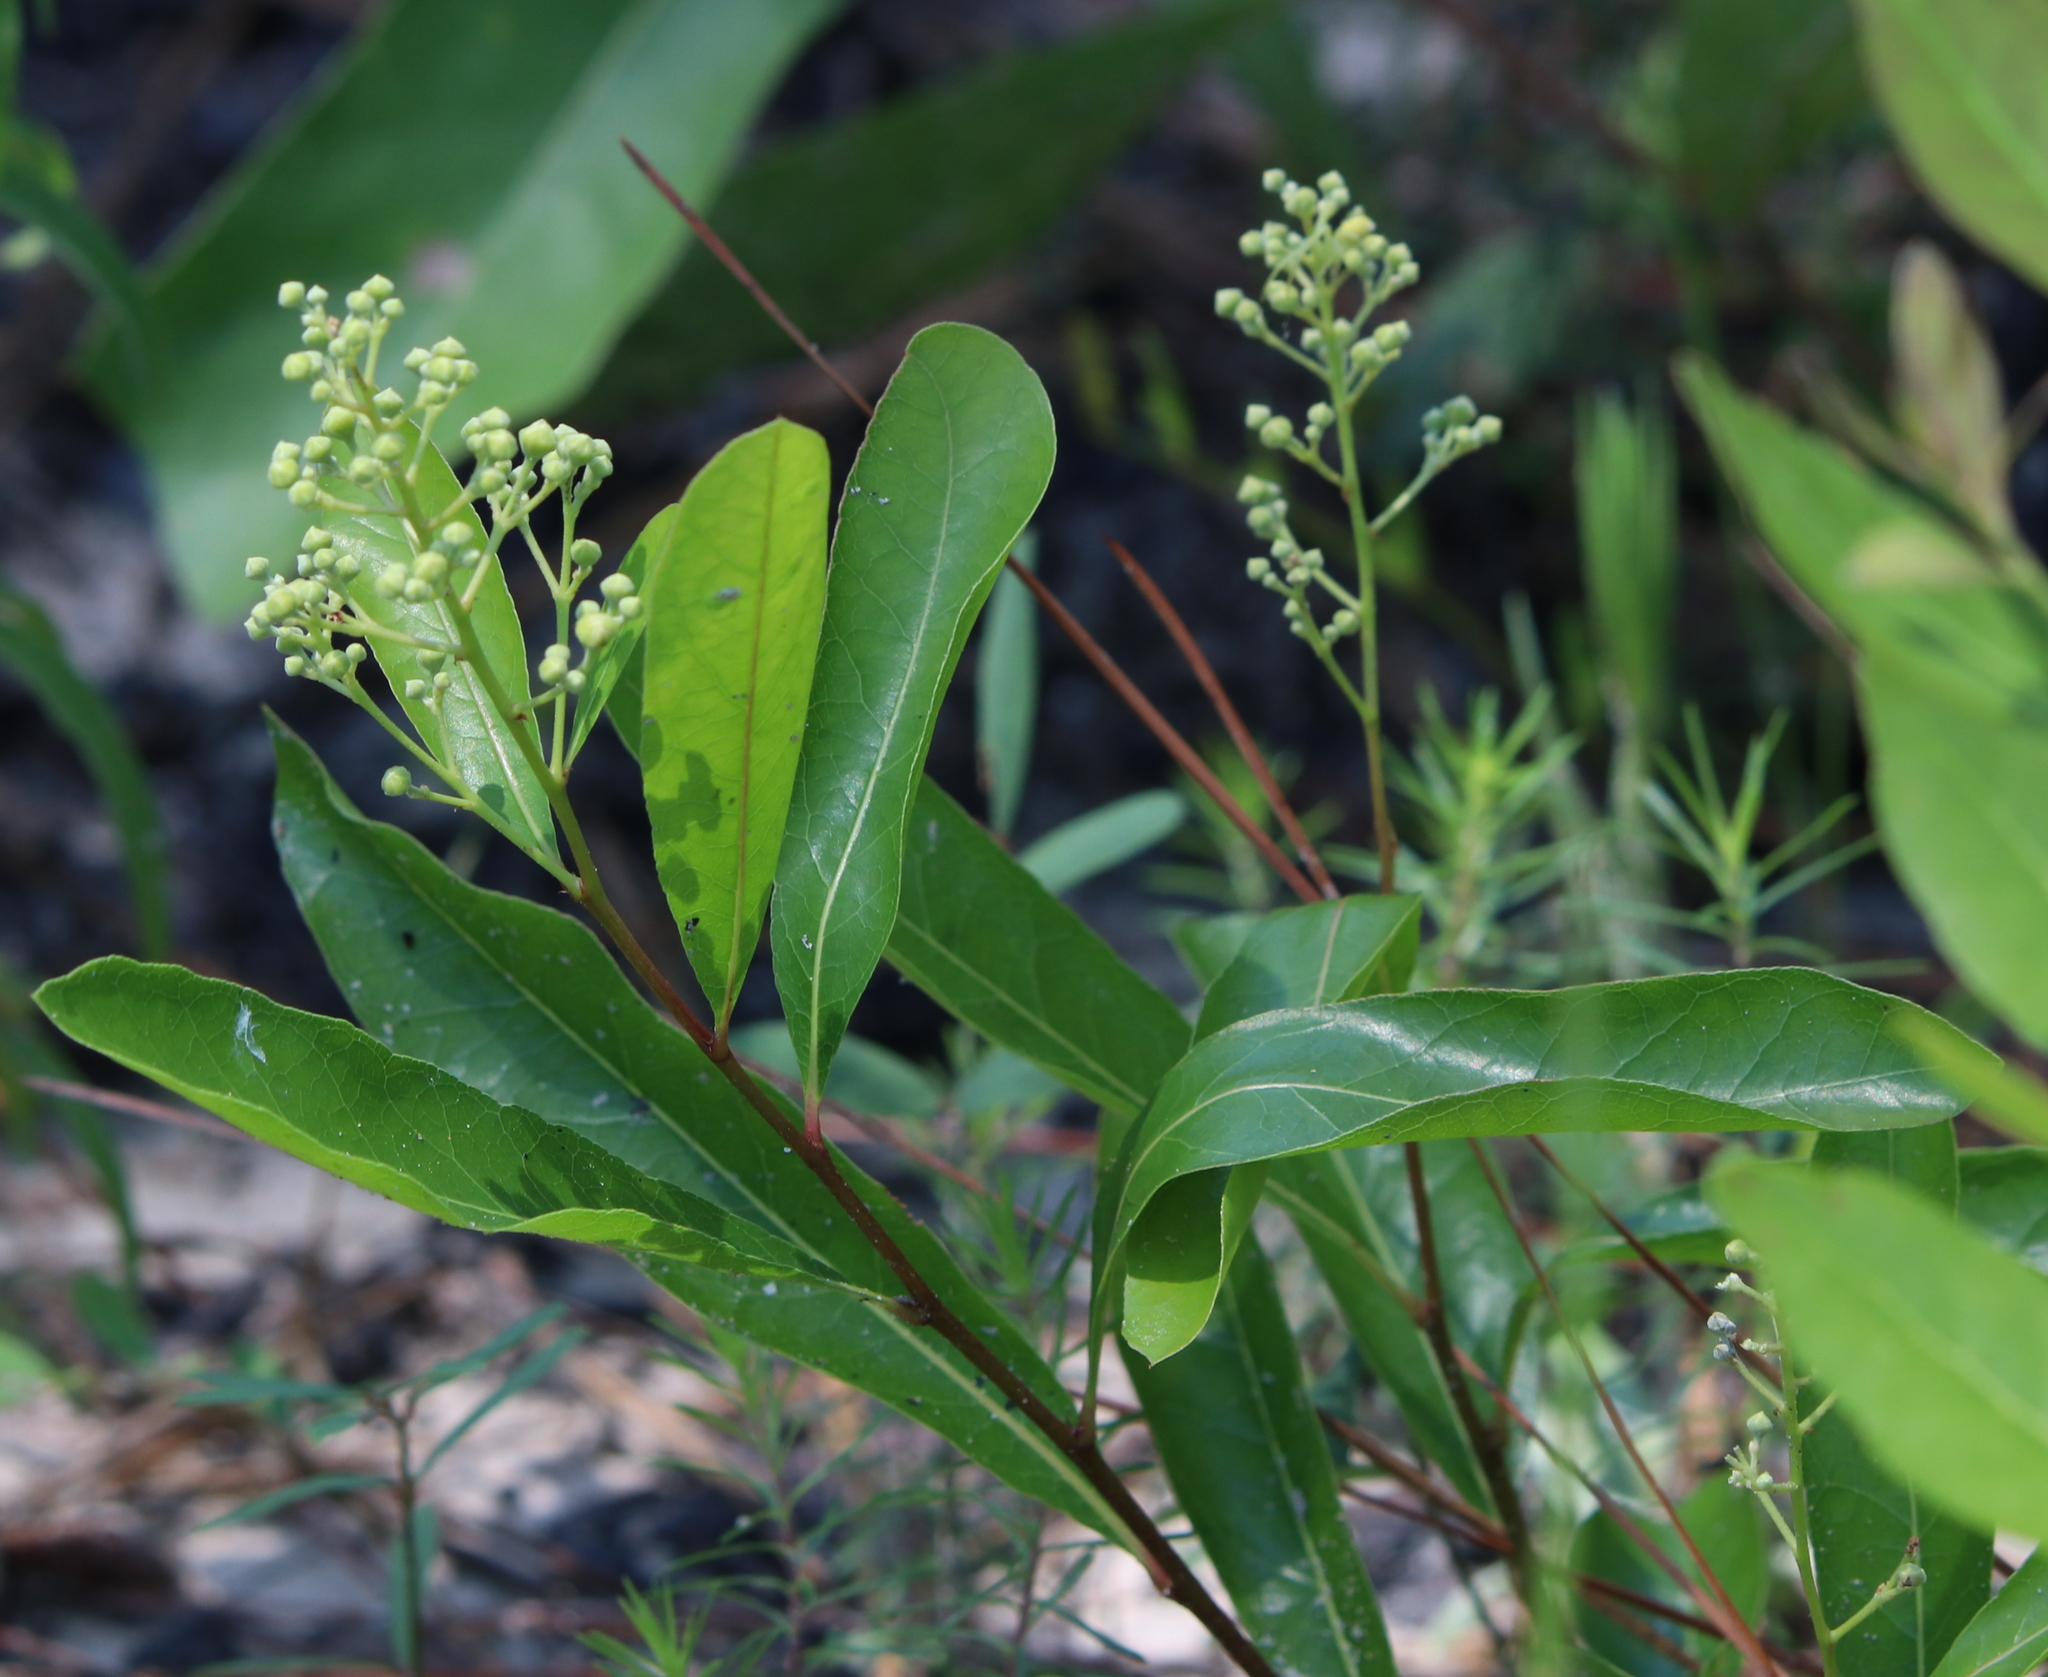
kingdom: Plantae
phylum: Tracheophyta
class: Magnoliopsida
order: Malpighiales
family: Chrysobalanaceae
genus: Geobalanus
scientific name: Geobalanus oblongifolius
